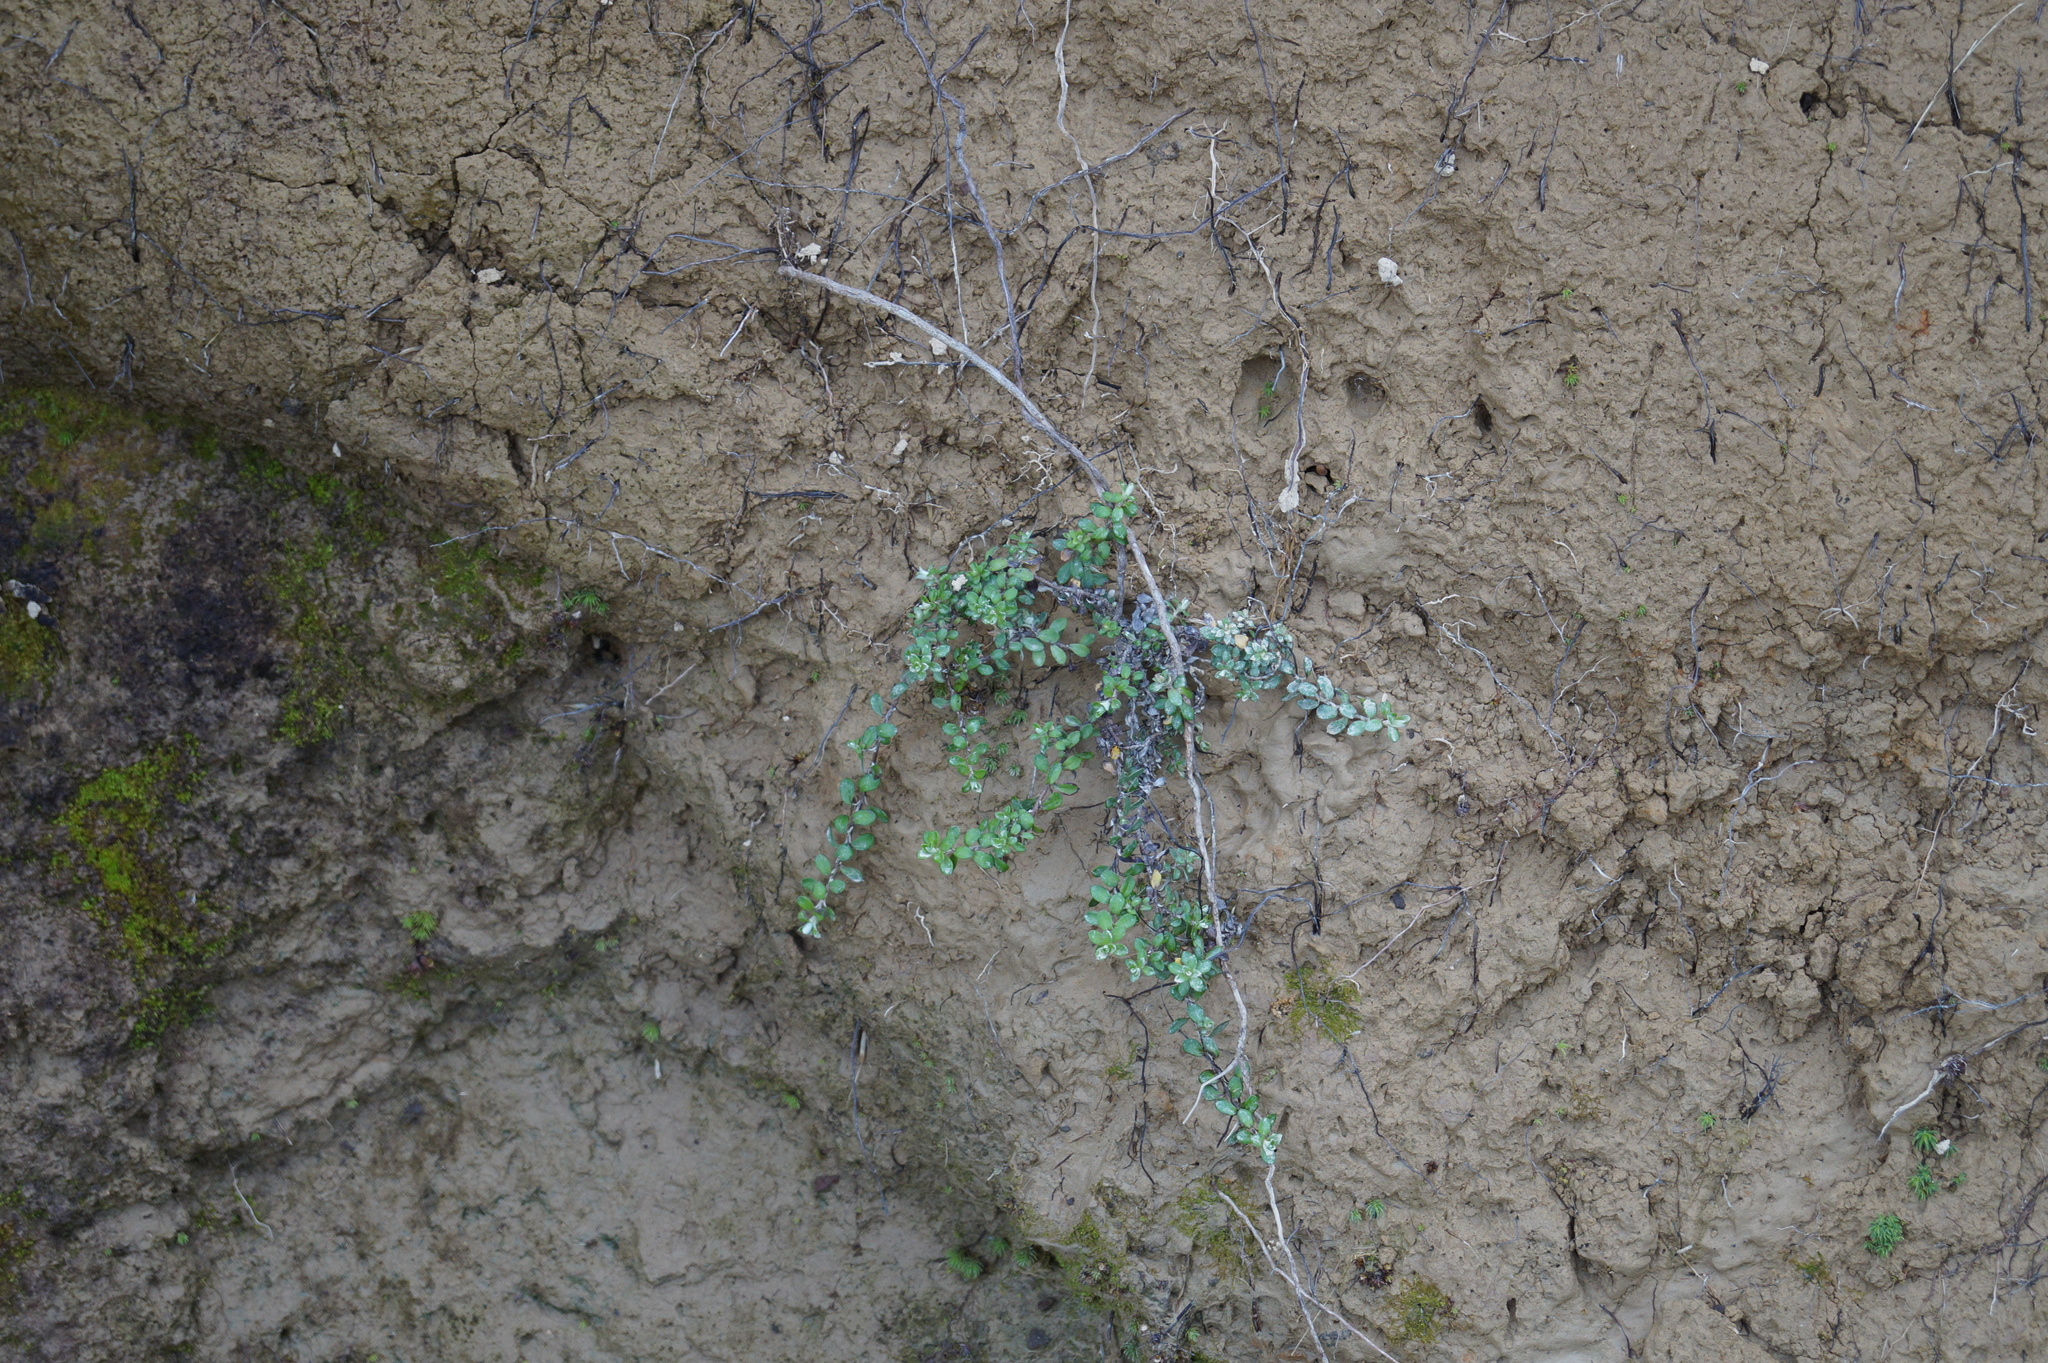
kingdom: Plantae
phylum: Tracheophyta
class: Magnoliopsida
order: Asterales
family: Asteraceae
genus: Anaphalioides
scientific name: Anaphalioides bellidioides
